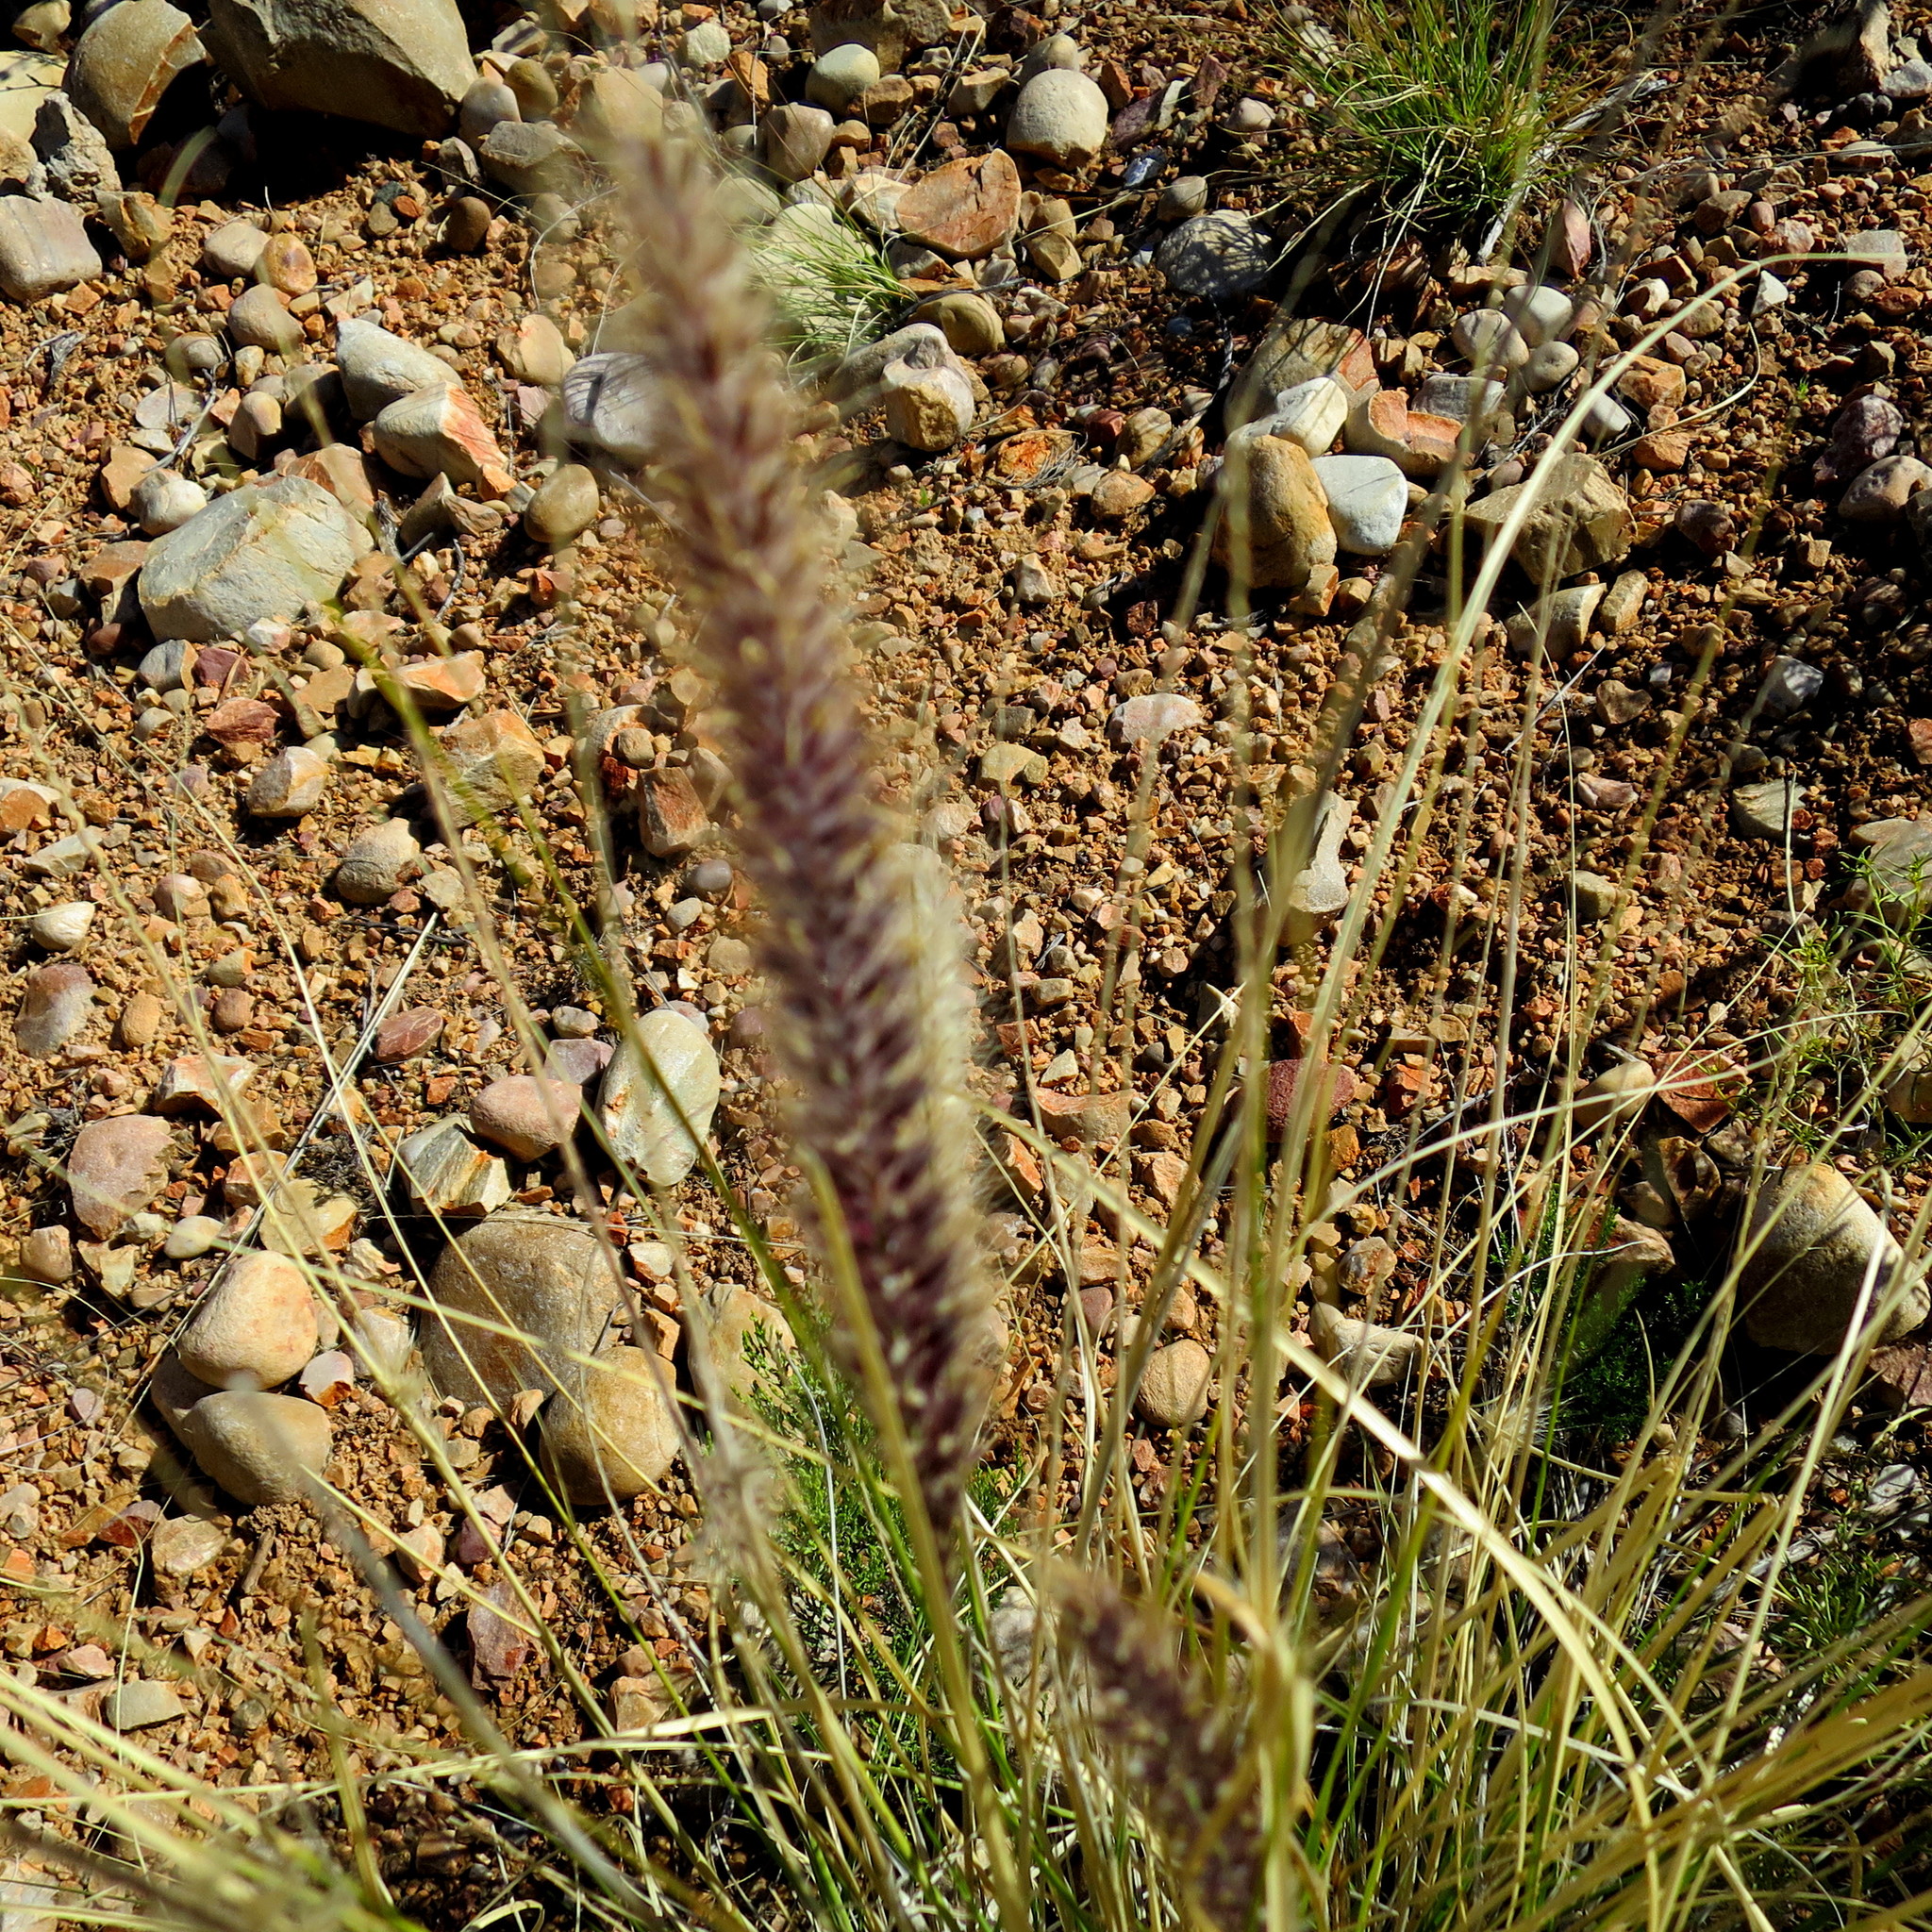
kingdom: Plantae
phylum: Tracheophyta
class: Liliopsida
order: Poales
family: Poaceae
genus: Cenchrus
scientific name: Cenchrus setaceus
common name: Crimson fountaingrass
